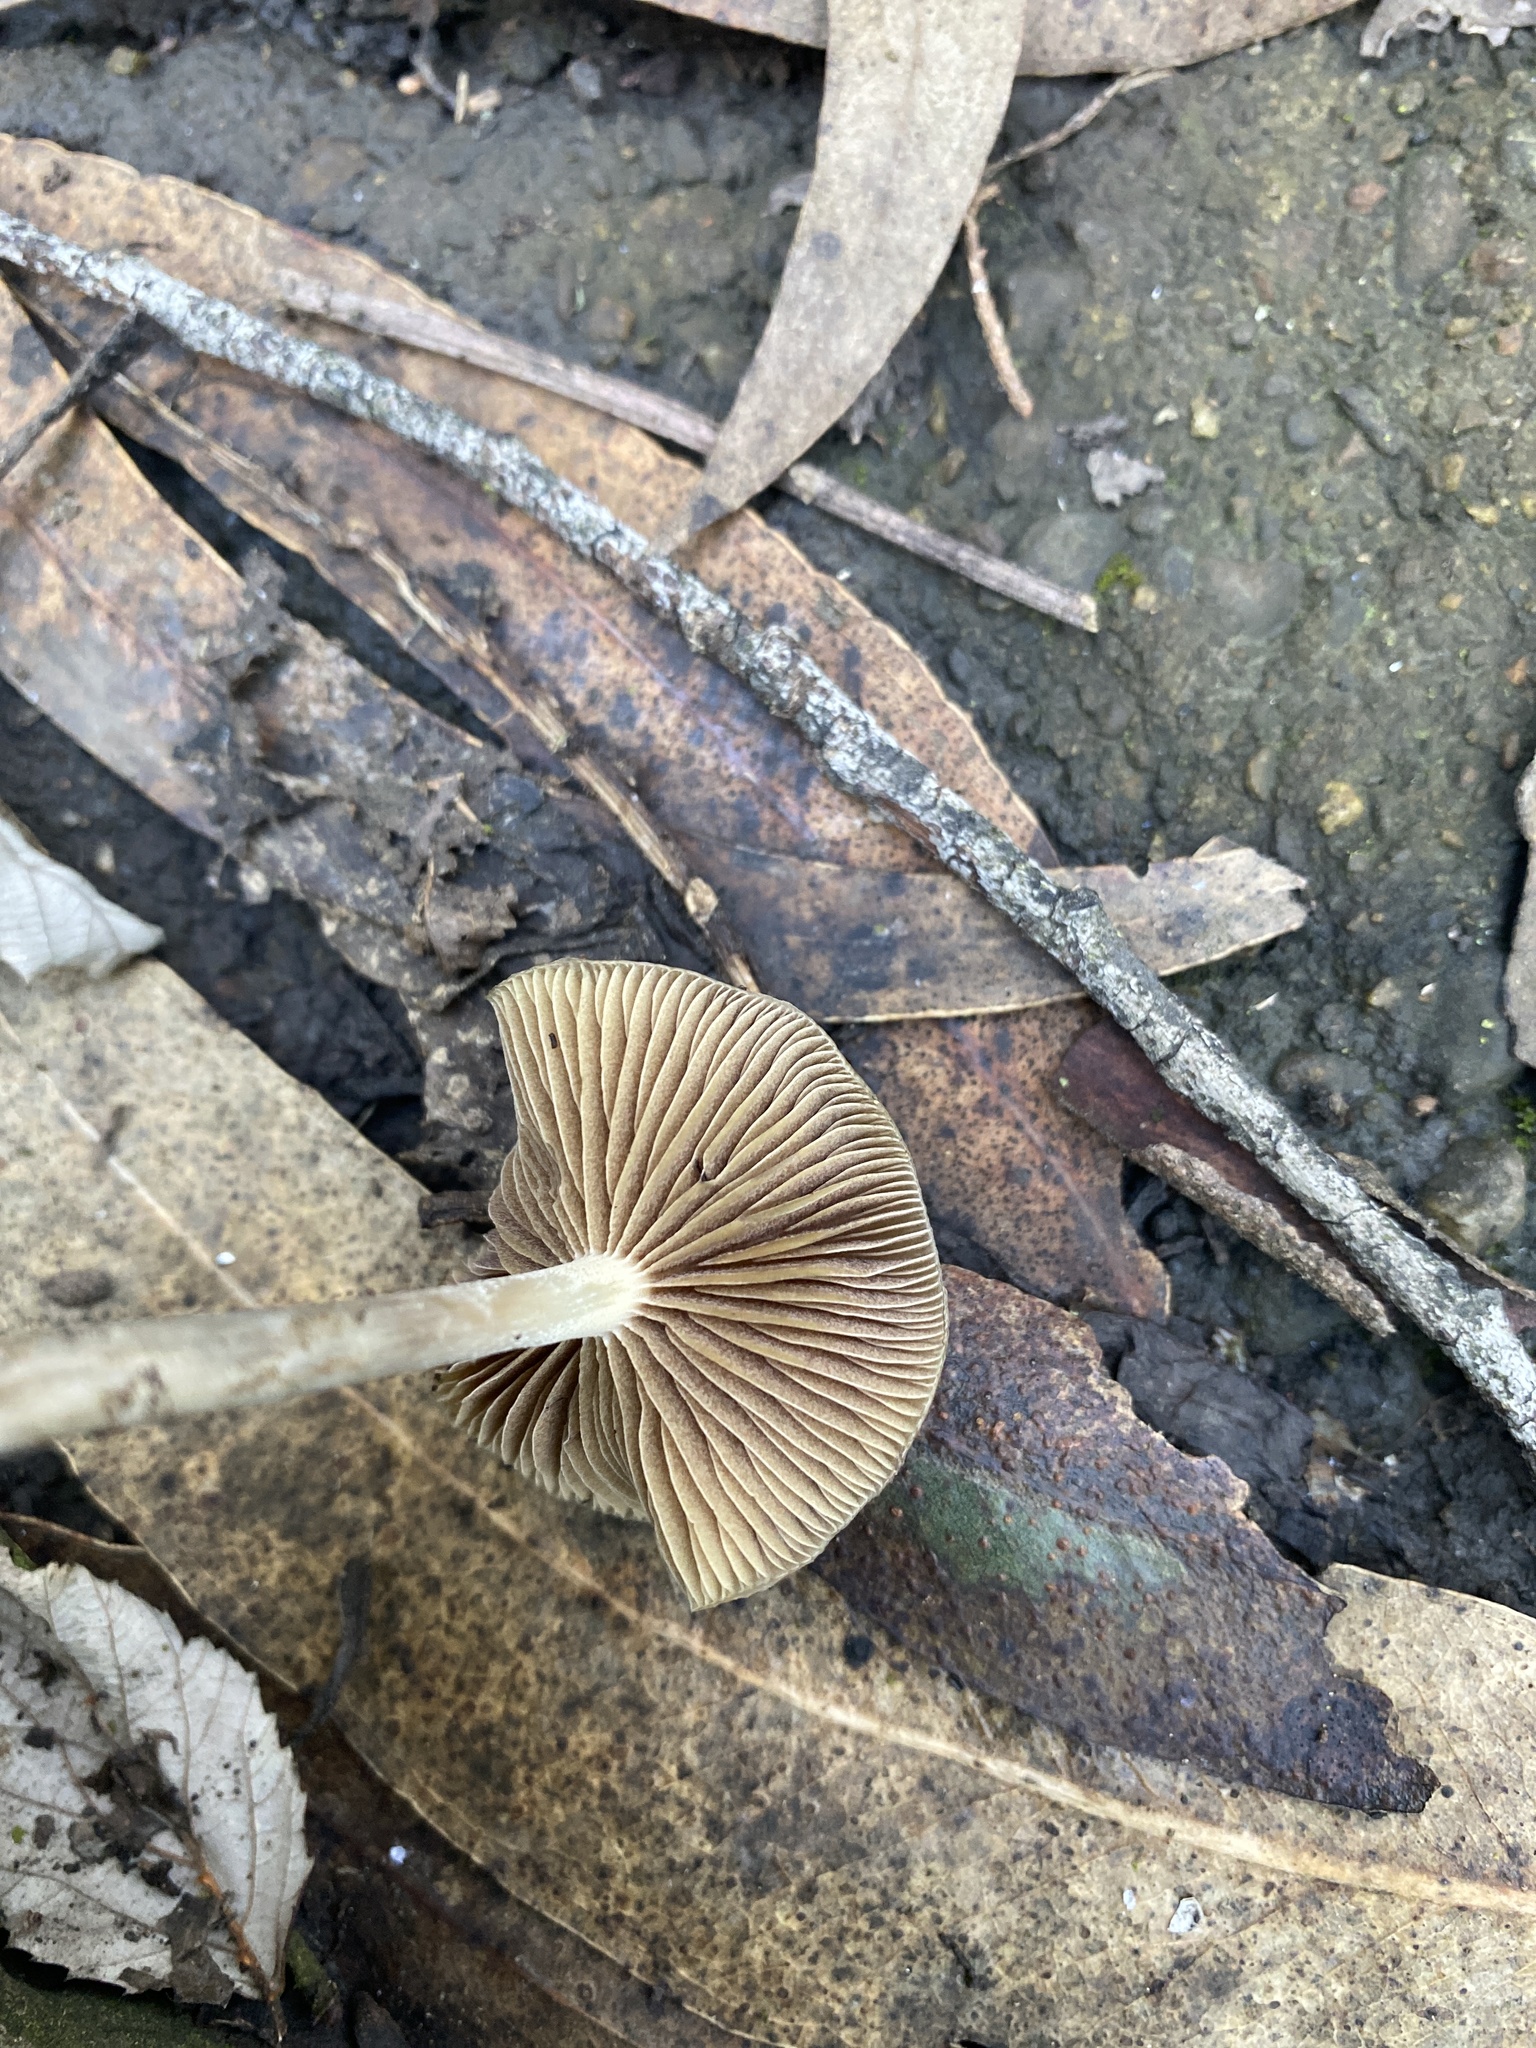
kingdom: Fungi
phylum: Basidiomycota
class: Agaricomycetes
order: Agaricales
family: Hymenogastraceae
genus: Psilocybe
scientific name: Psilocybe cyanescens
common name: Blueleg brownie
